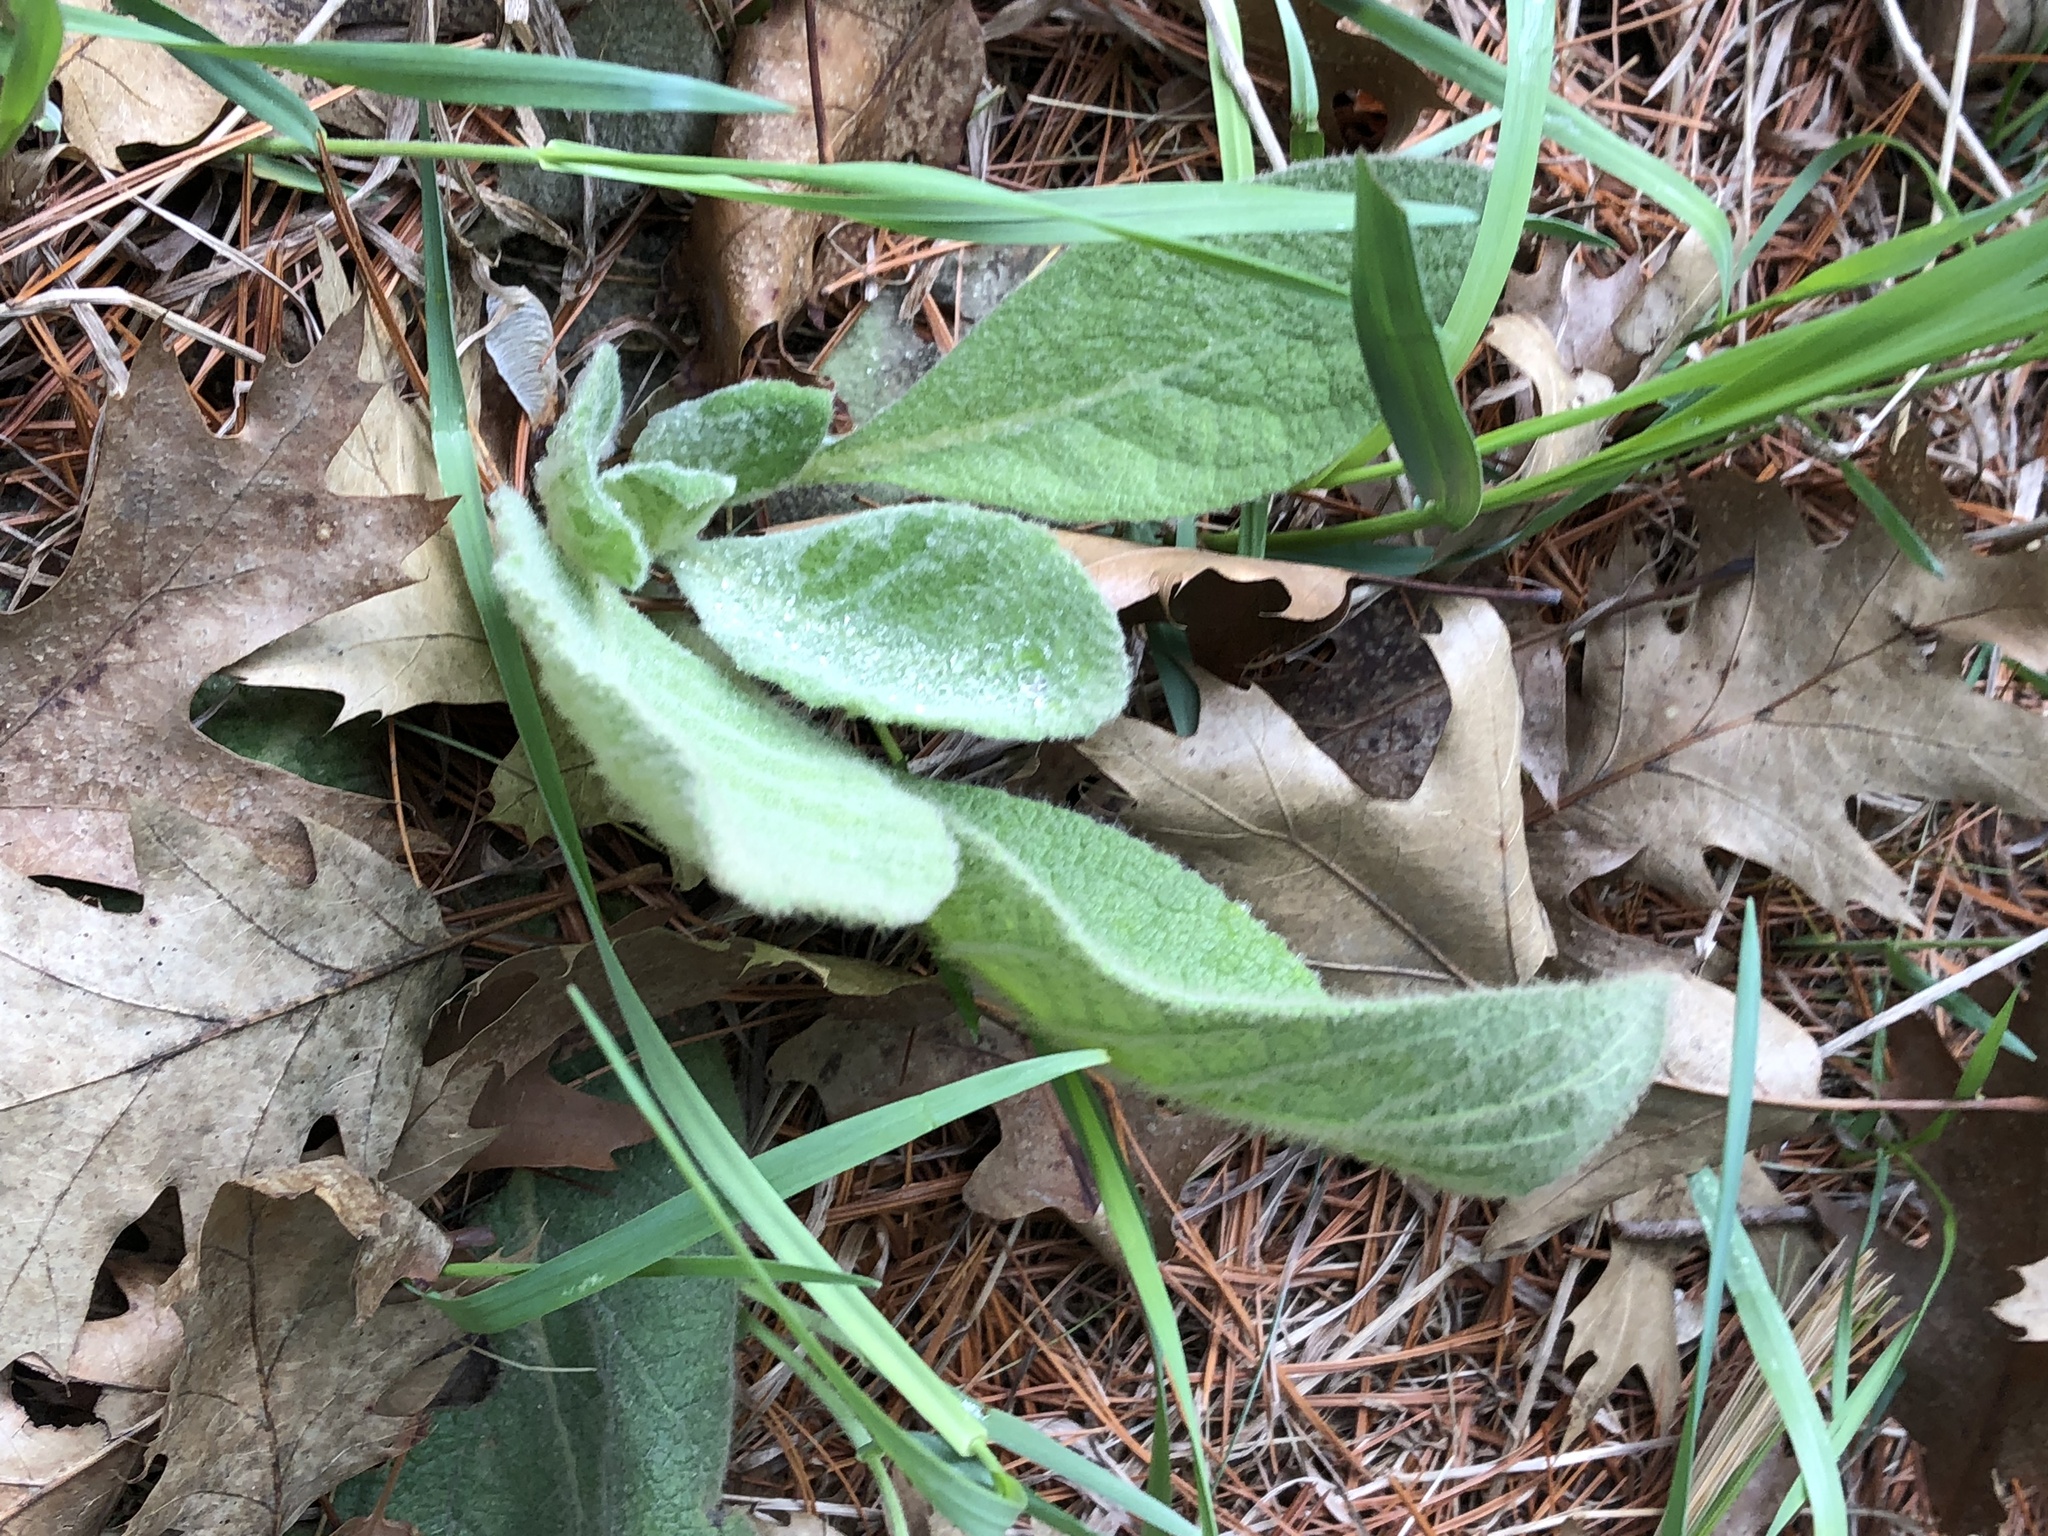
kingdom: Plantae
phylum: Tracheophyta
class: Magnoliopsida
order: Lamiales
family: Scrophulariaceae
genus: Verbascum
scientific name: Verbascum thapsus
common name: Common mullein
